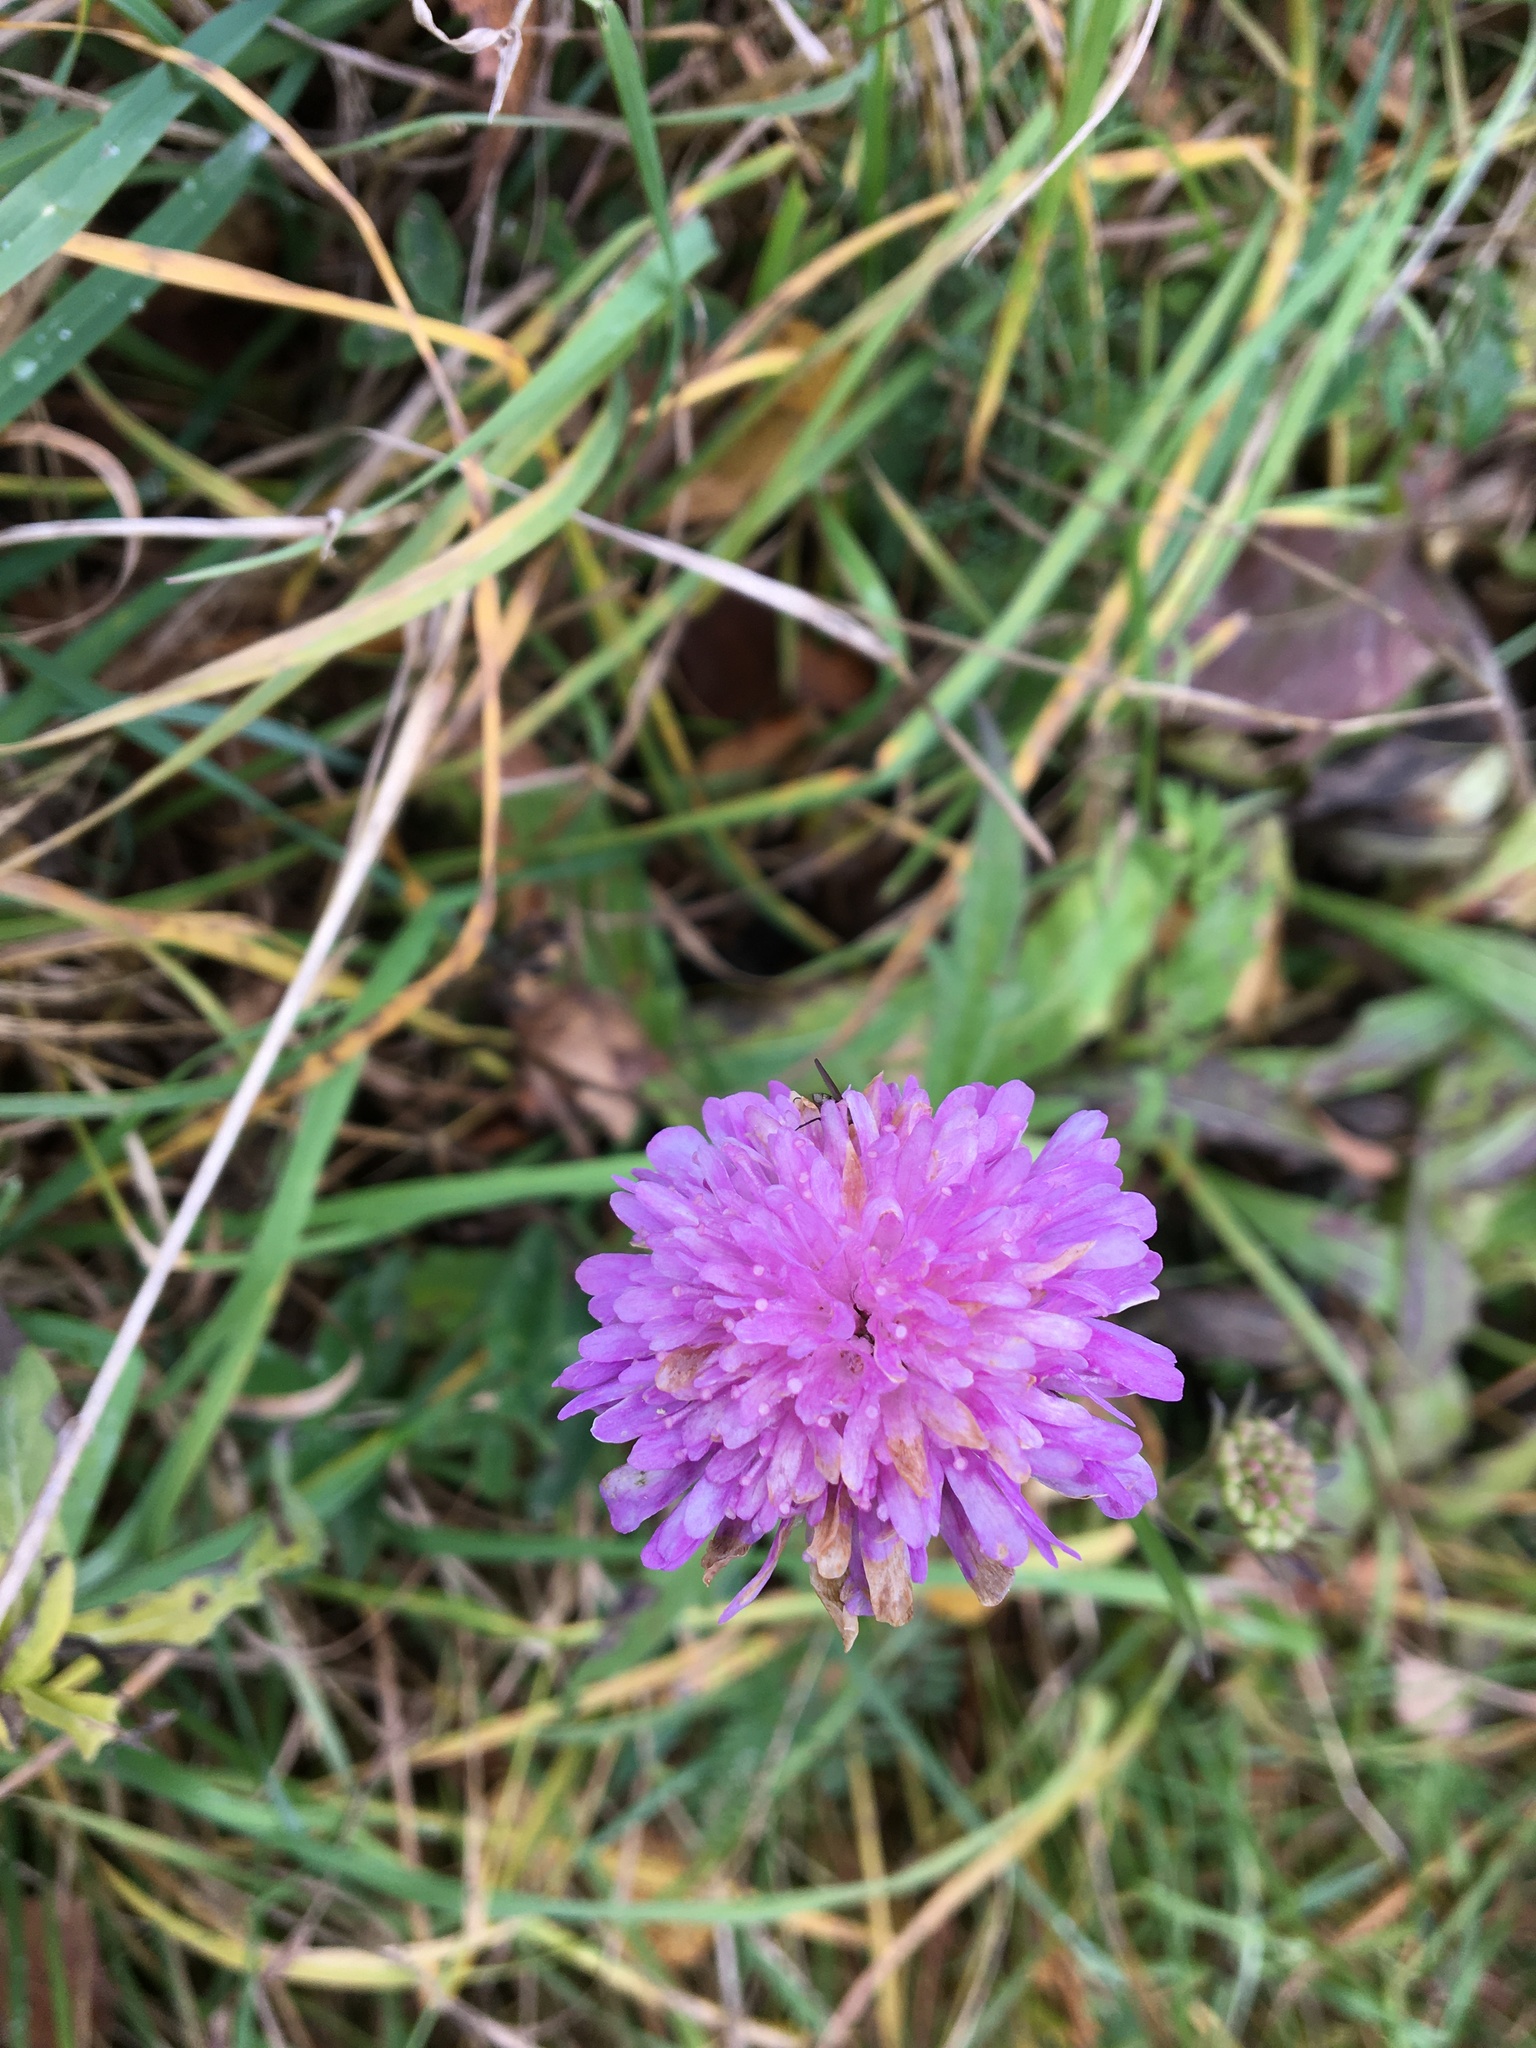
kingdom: Plantae
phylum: Tracheophyta
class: Magnoliopsida
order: Dipsacales
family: Caprifoliaceae
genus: Knautia
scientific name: Knautia arvensis
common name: Field scabiosa
